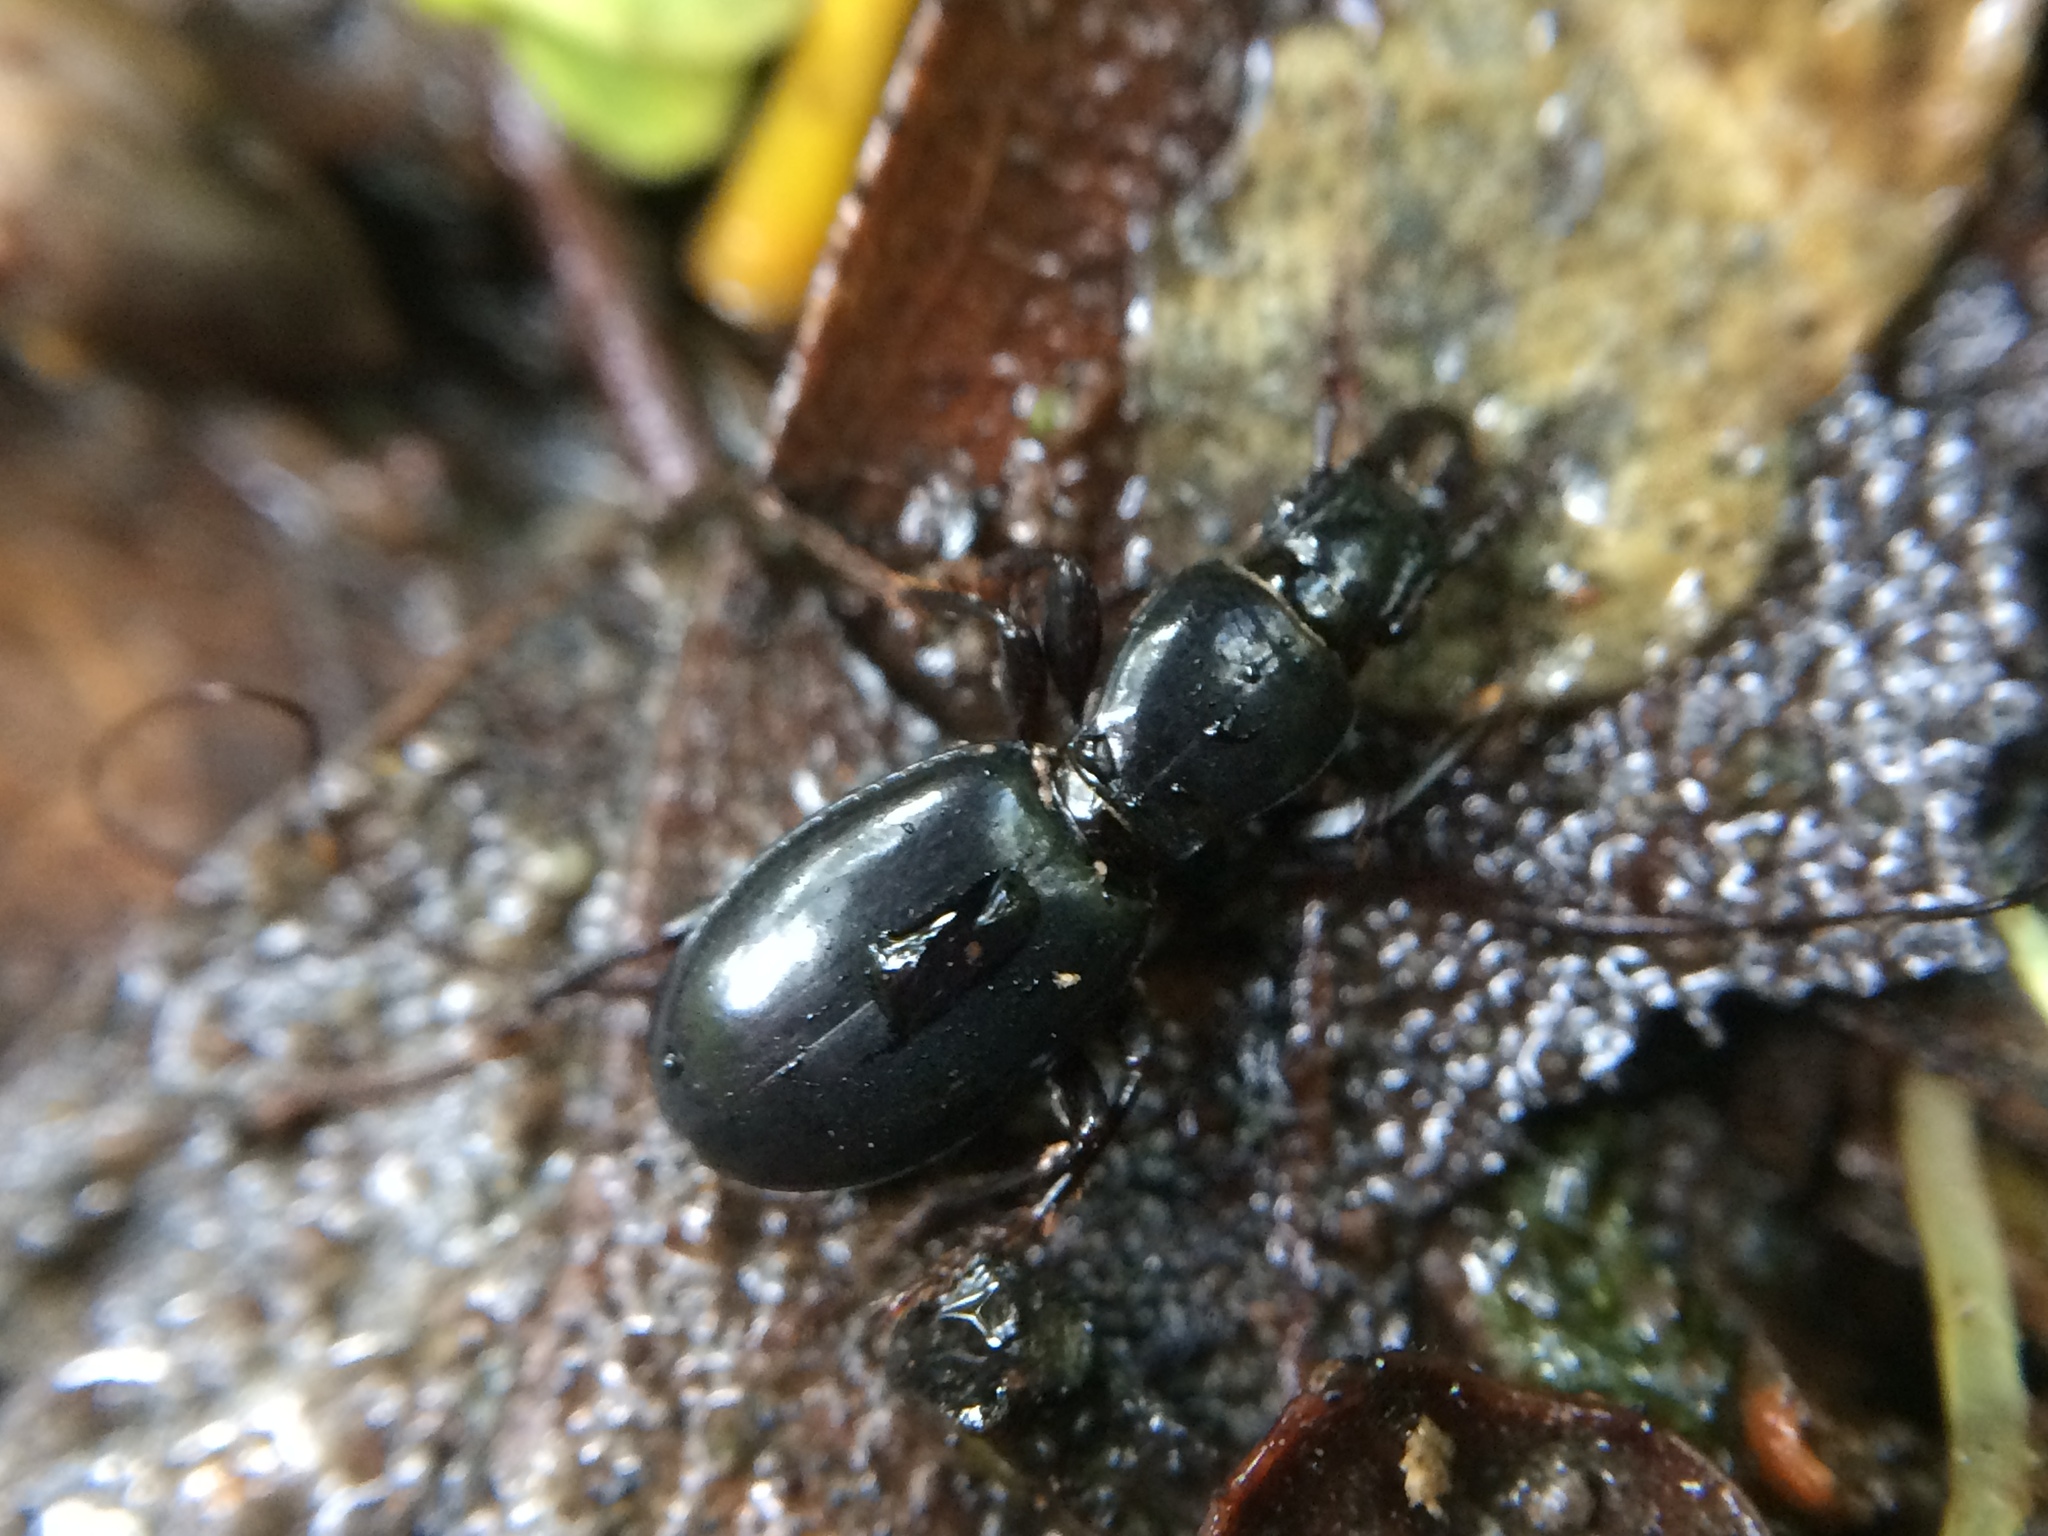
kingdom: Animalia
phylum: Arthropoda
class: Insecta
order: Coleoptera
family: Carabidae
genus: Promecognathus
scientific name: Promecognathus laevissimus
